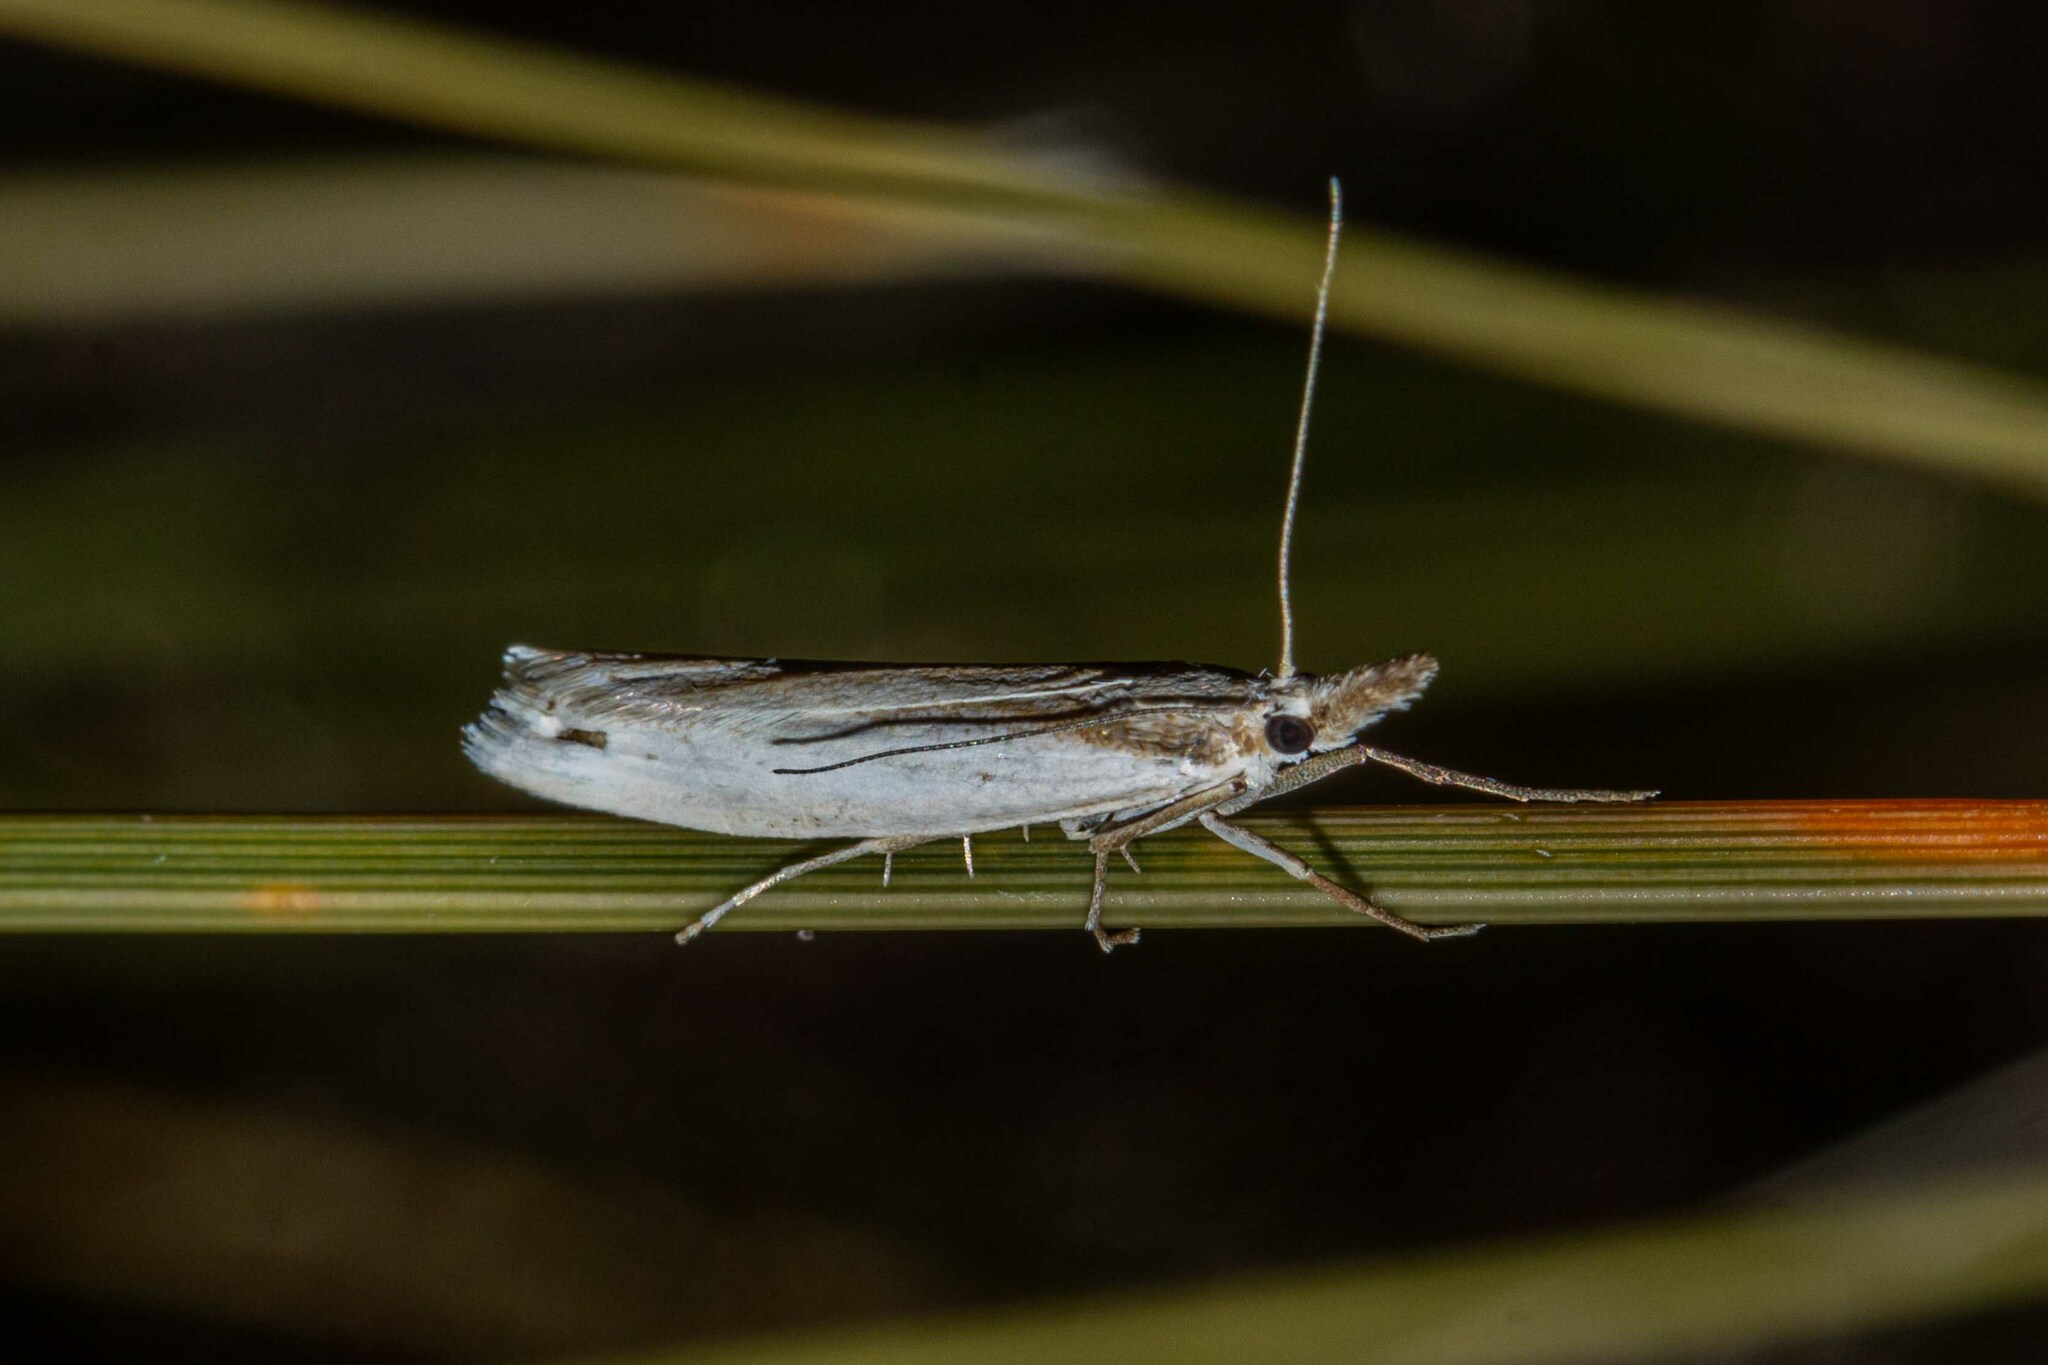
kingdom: Animalia
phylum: Arthropoda
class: Insecta
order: Lepidoptera
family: Crambidae
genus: Orocrambus
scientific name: Orocrambus vulgaris
